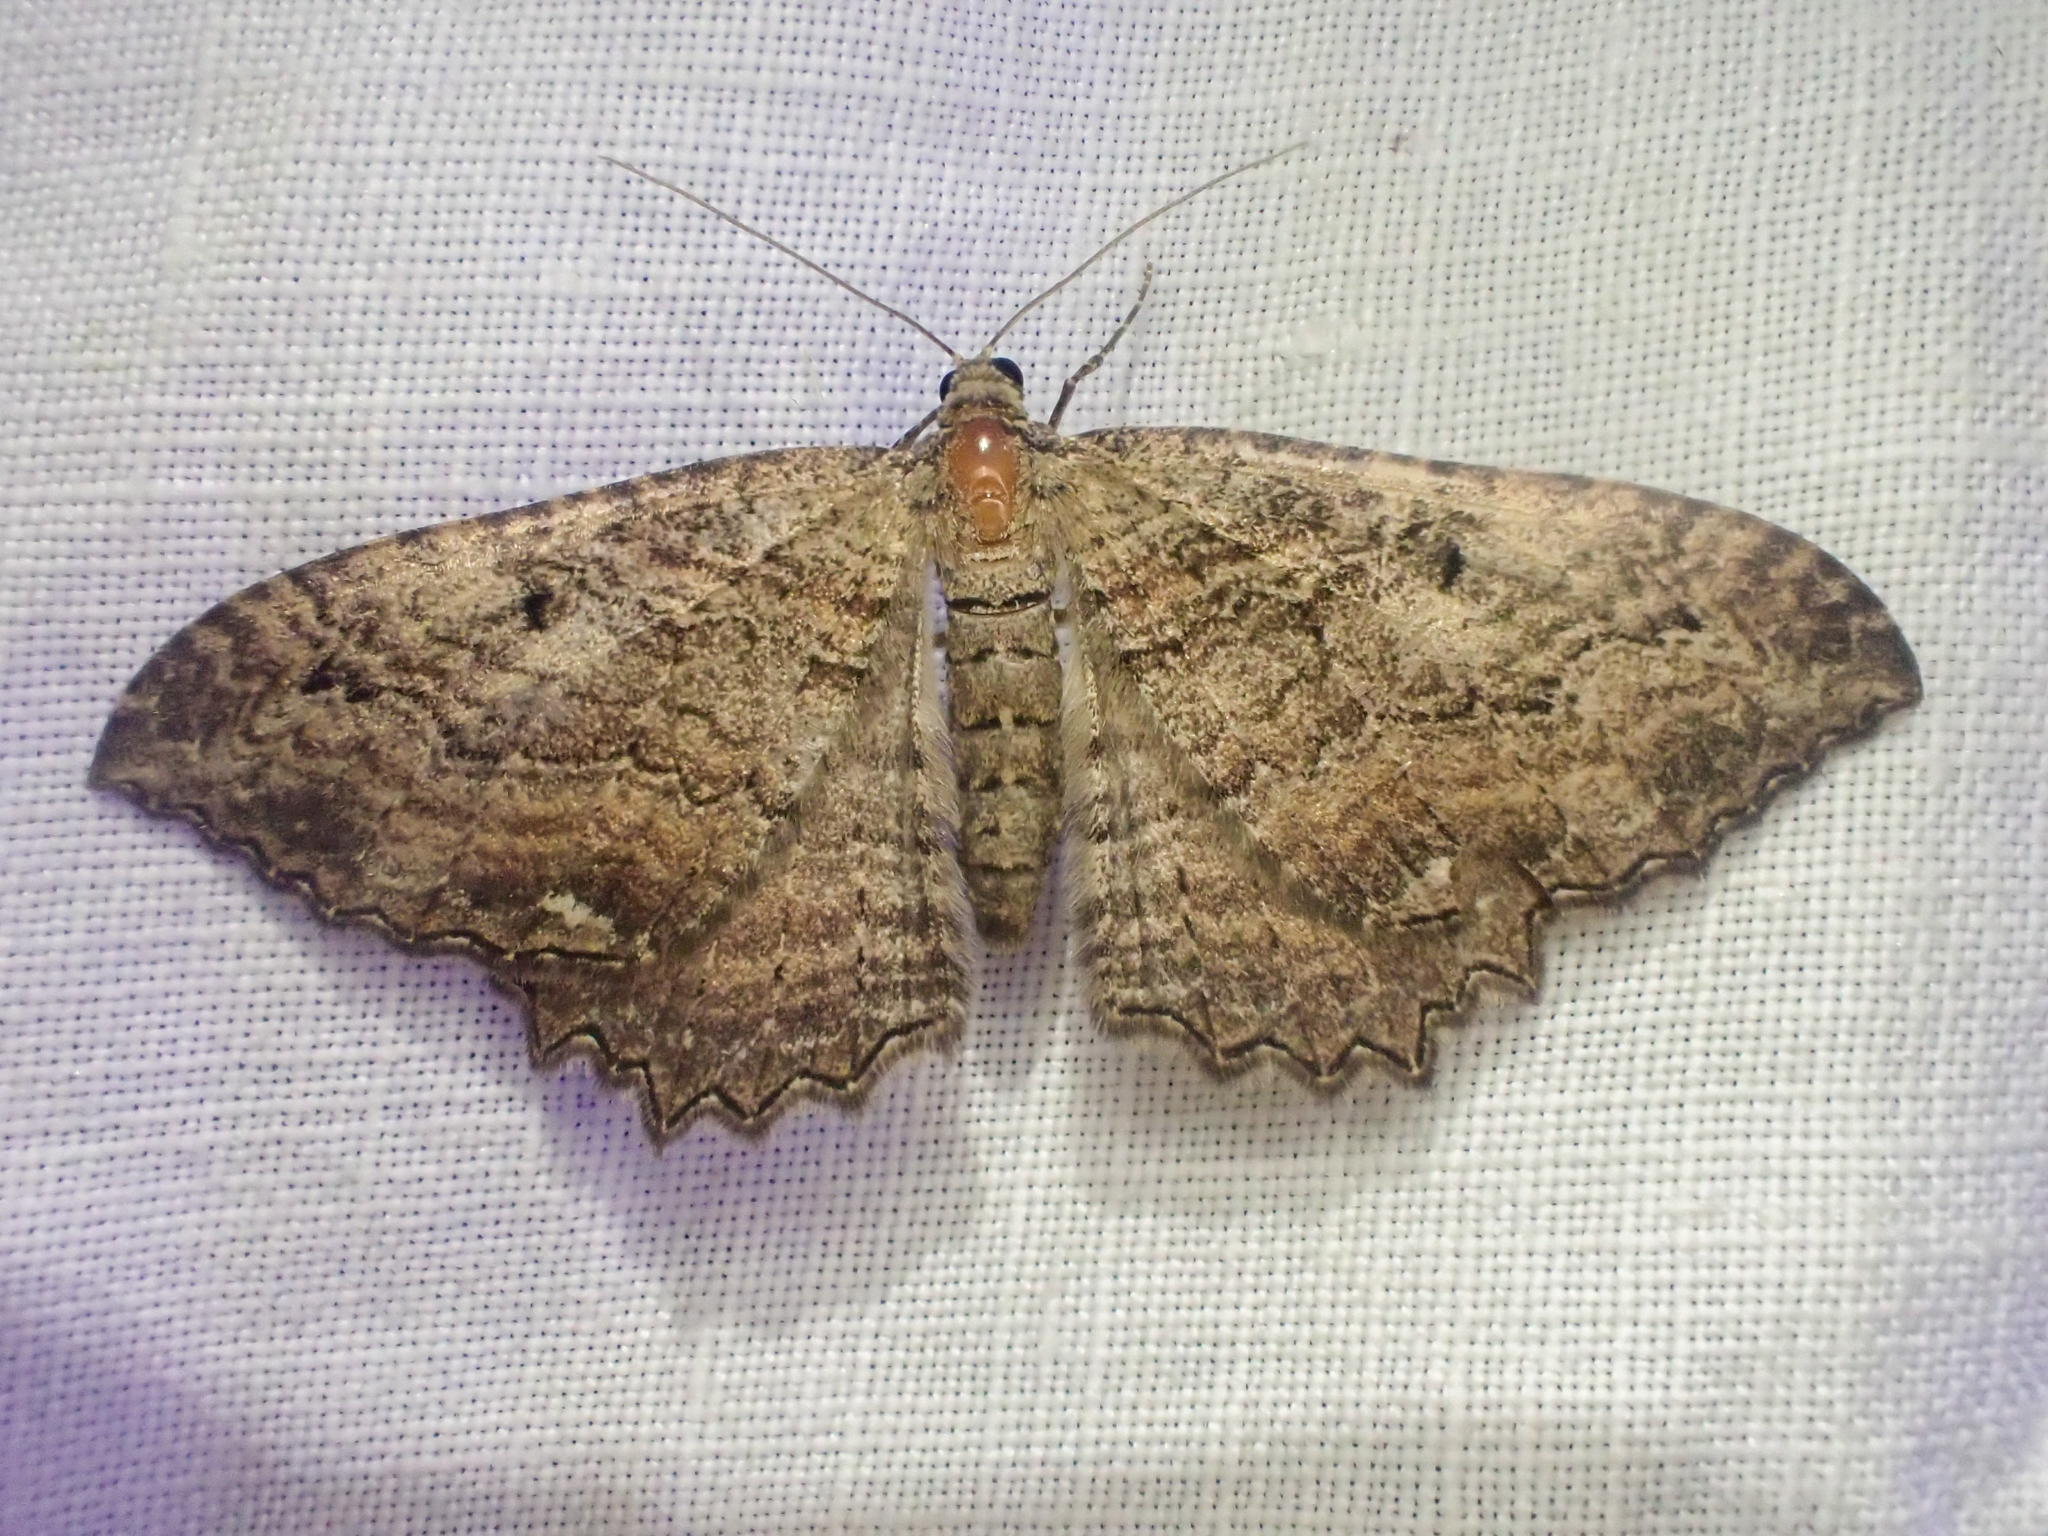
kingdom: Animalia
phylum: Arthropoda
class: Insecta
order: Lepidoptera
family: Geometridae
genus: Rheumaptera
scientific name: Rheumaptera
